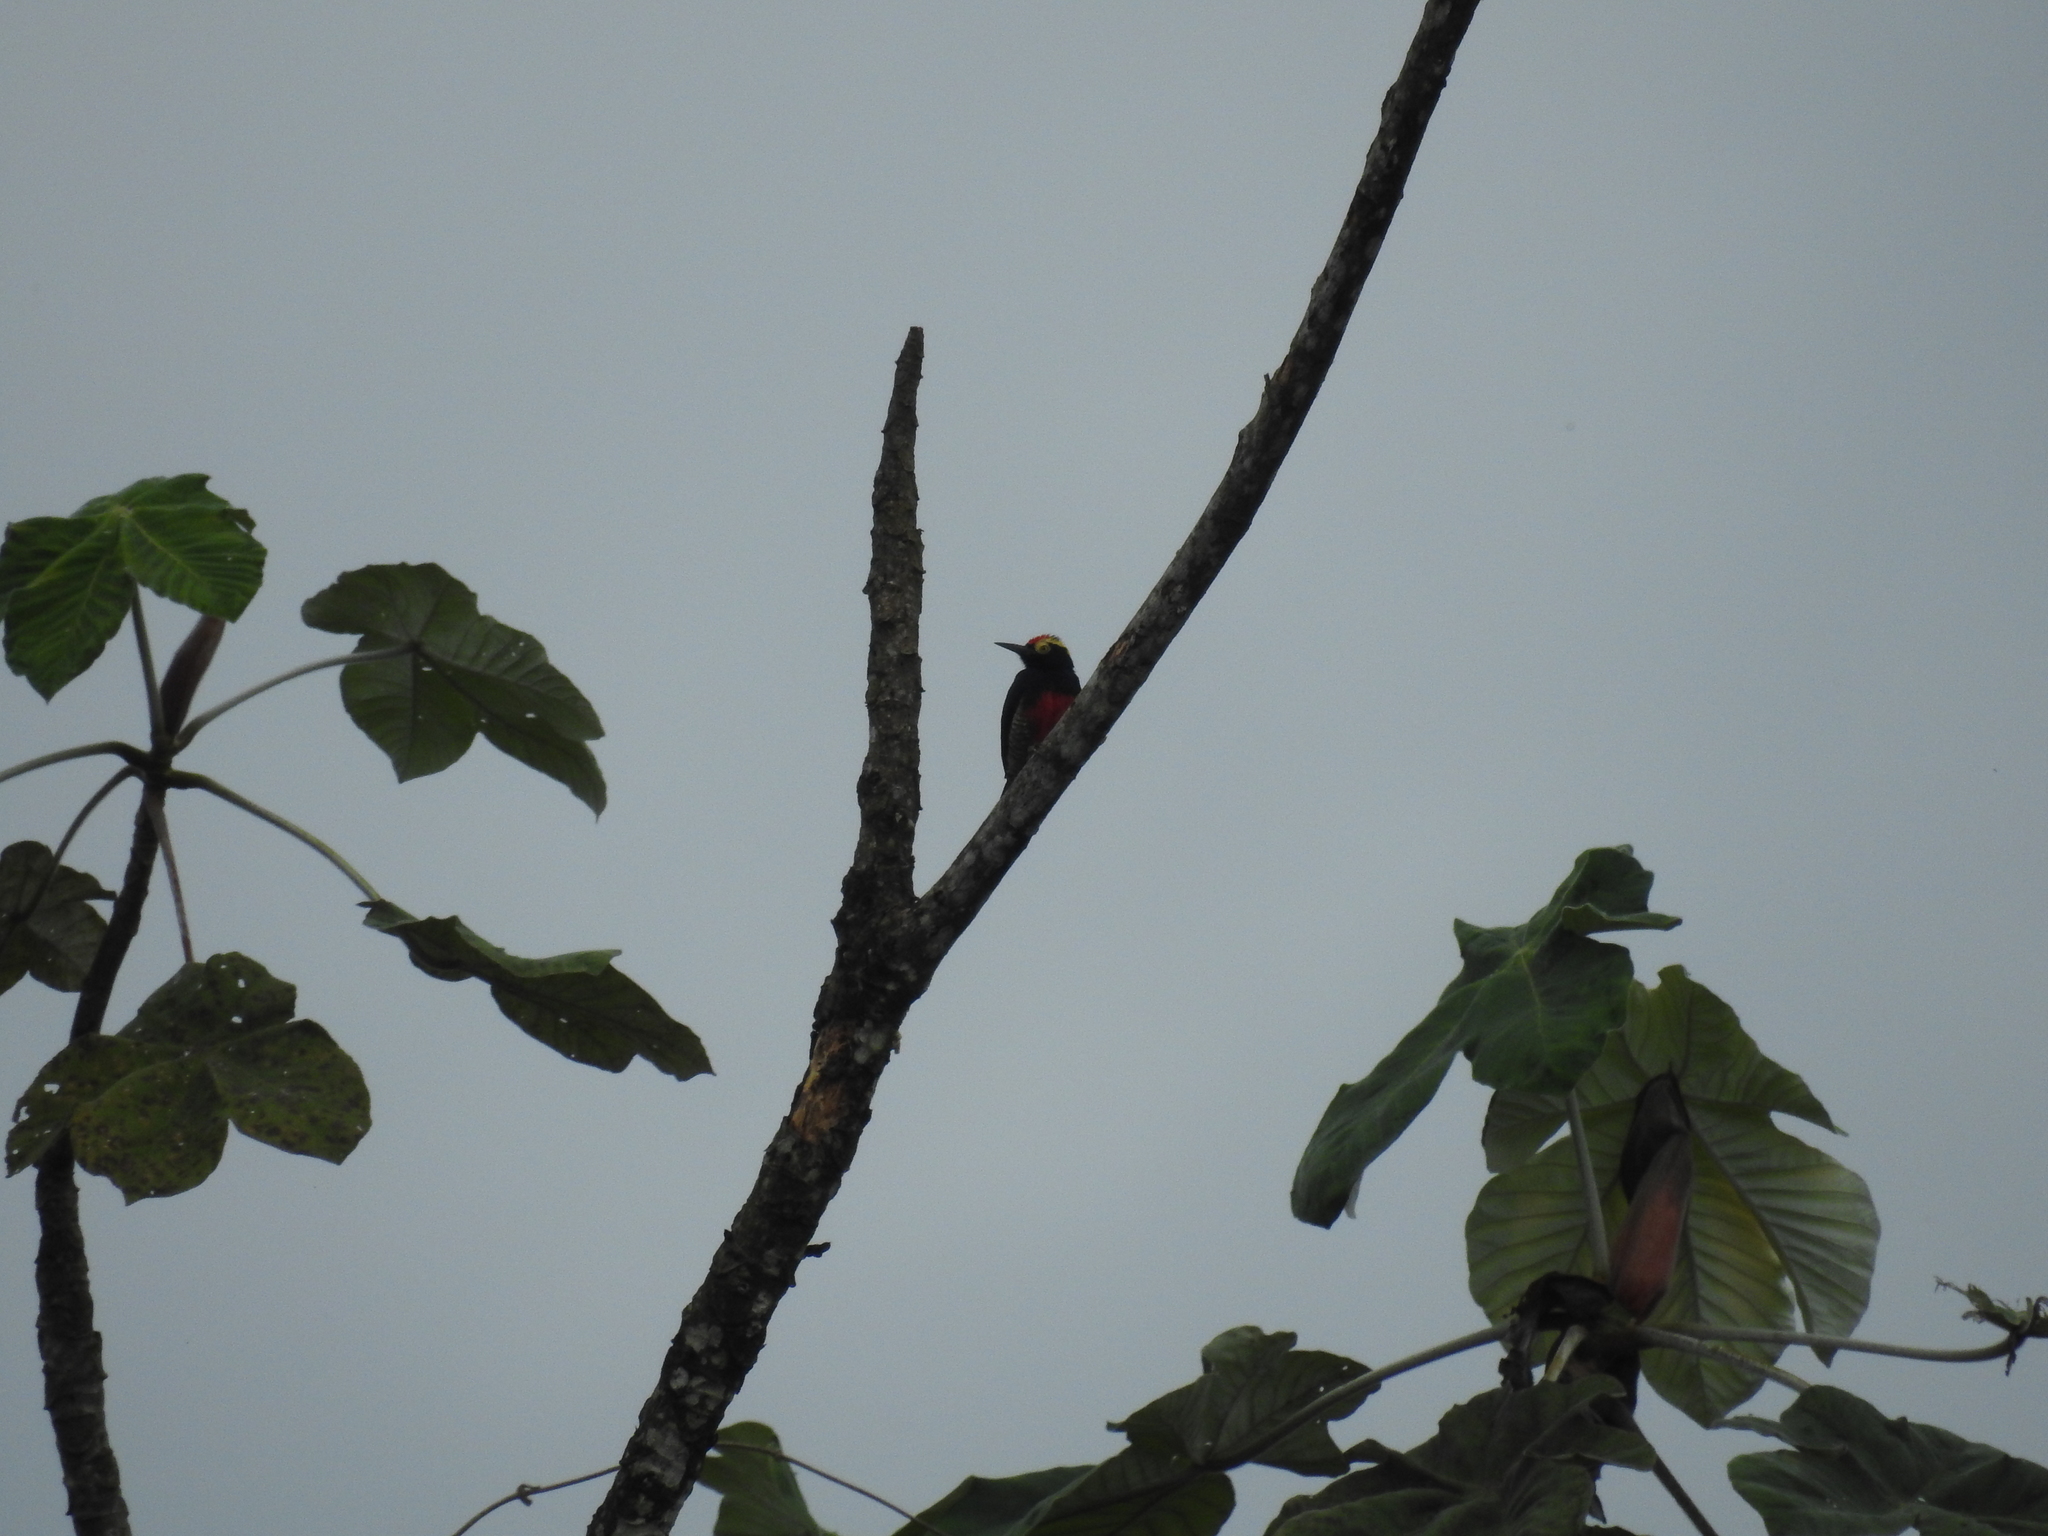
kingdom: Animalia
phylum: Chordata
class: Aves
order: Piciformes
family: Picidae
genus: Melanerpes
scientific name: Melanerpes cruentatus
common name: Yellow-tufted woodpecker
